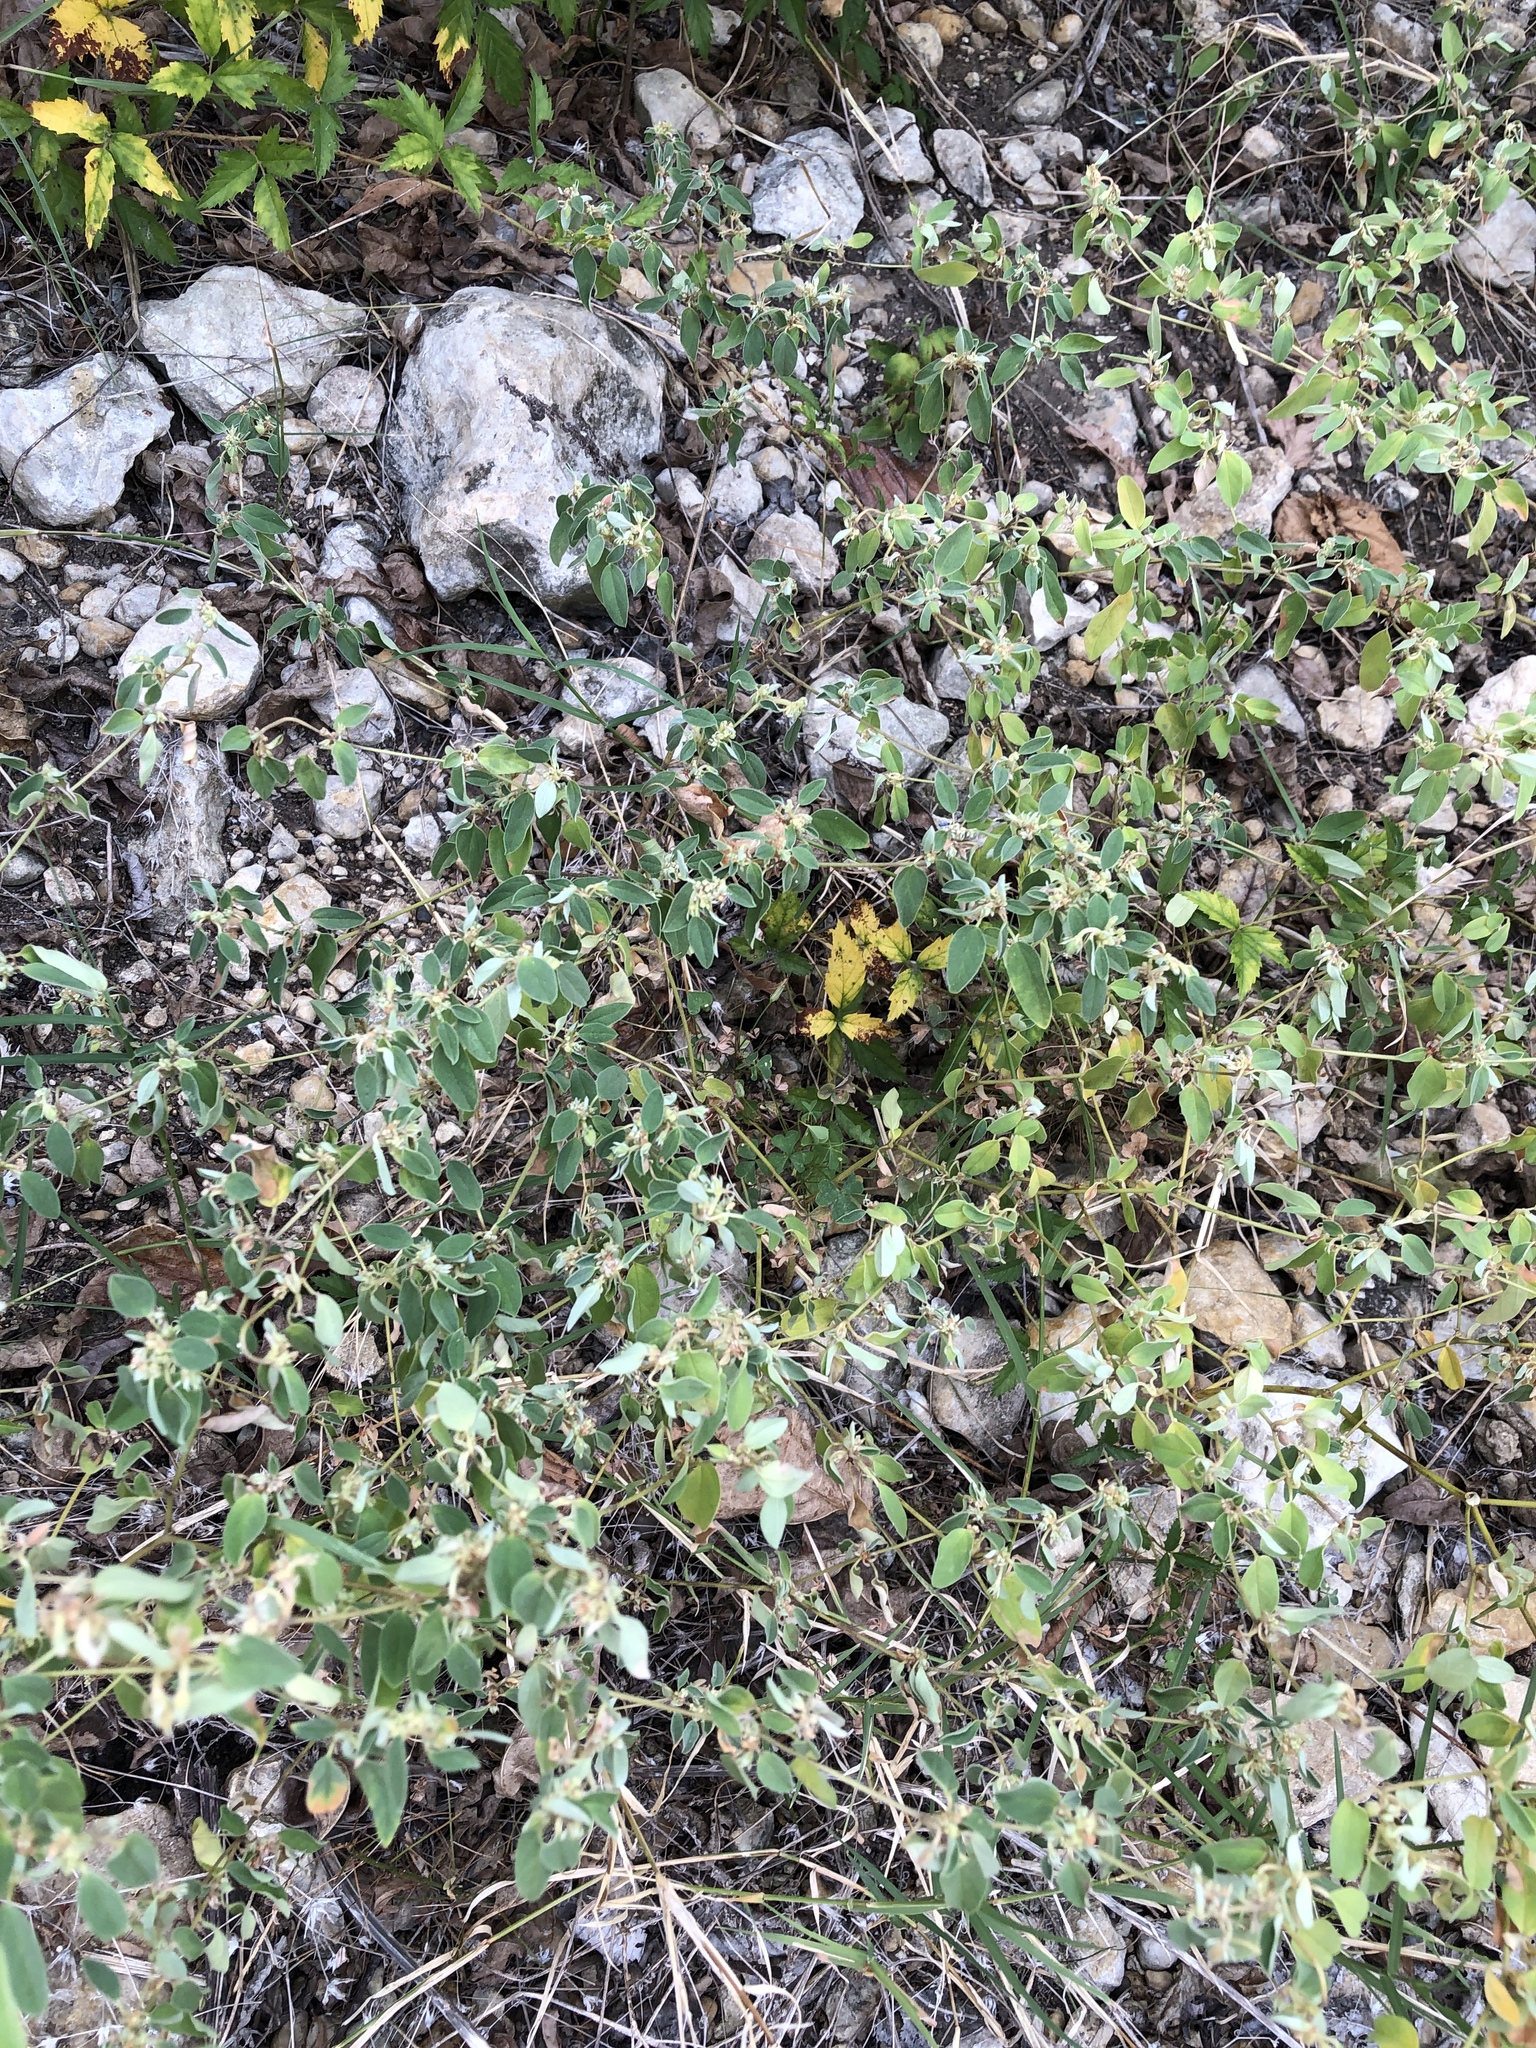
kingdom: Plantae
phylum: Tracheophyta
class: Magnoliopsida
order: Malpighiales
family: Euphorbiaceae
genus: Croton
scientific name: Croton monanthogynus
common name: One-seed croton
